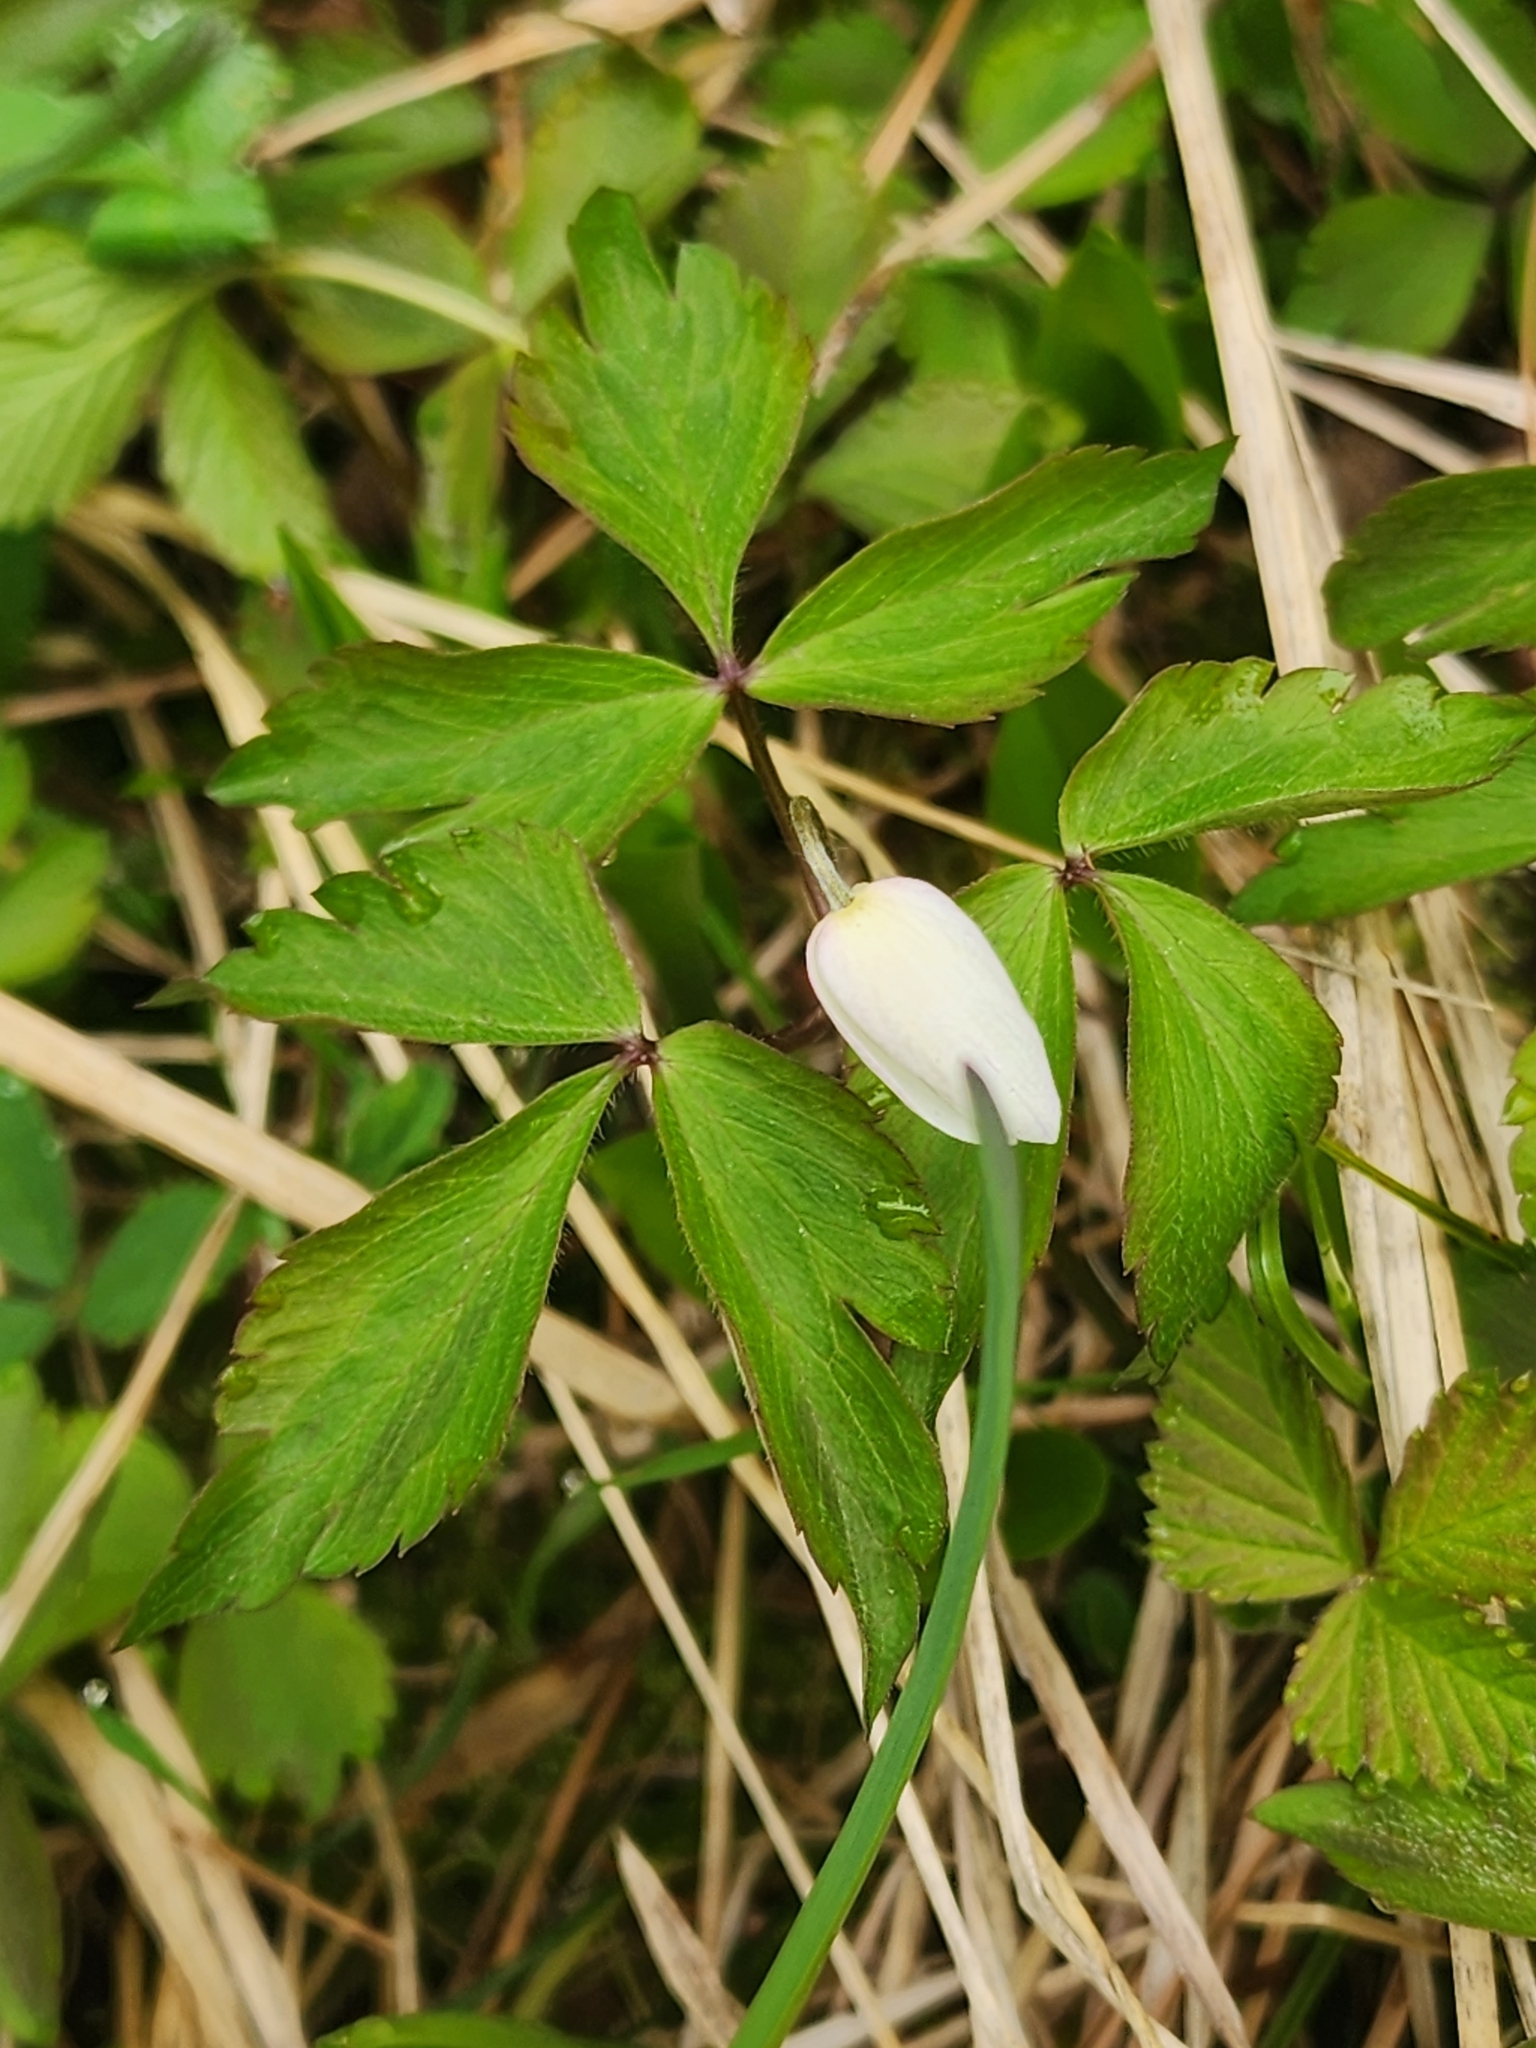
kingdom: Plantae
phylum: Tracheophyta
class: Magnoliopsida
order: Ranunculales
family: Ranunculaceae
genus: Anemone
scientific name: Anemone quinquefolia
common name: Wood anemone
